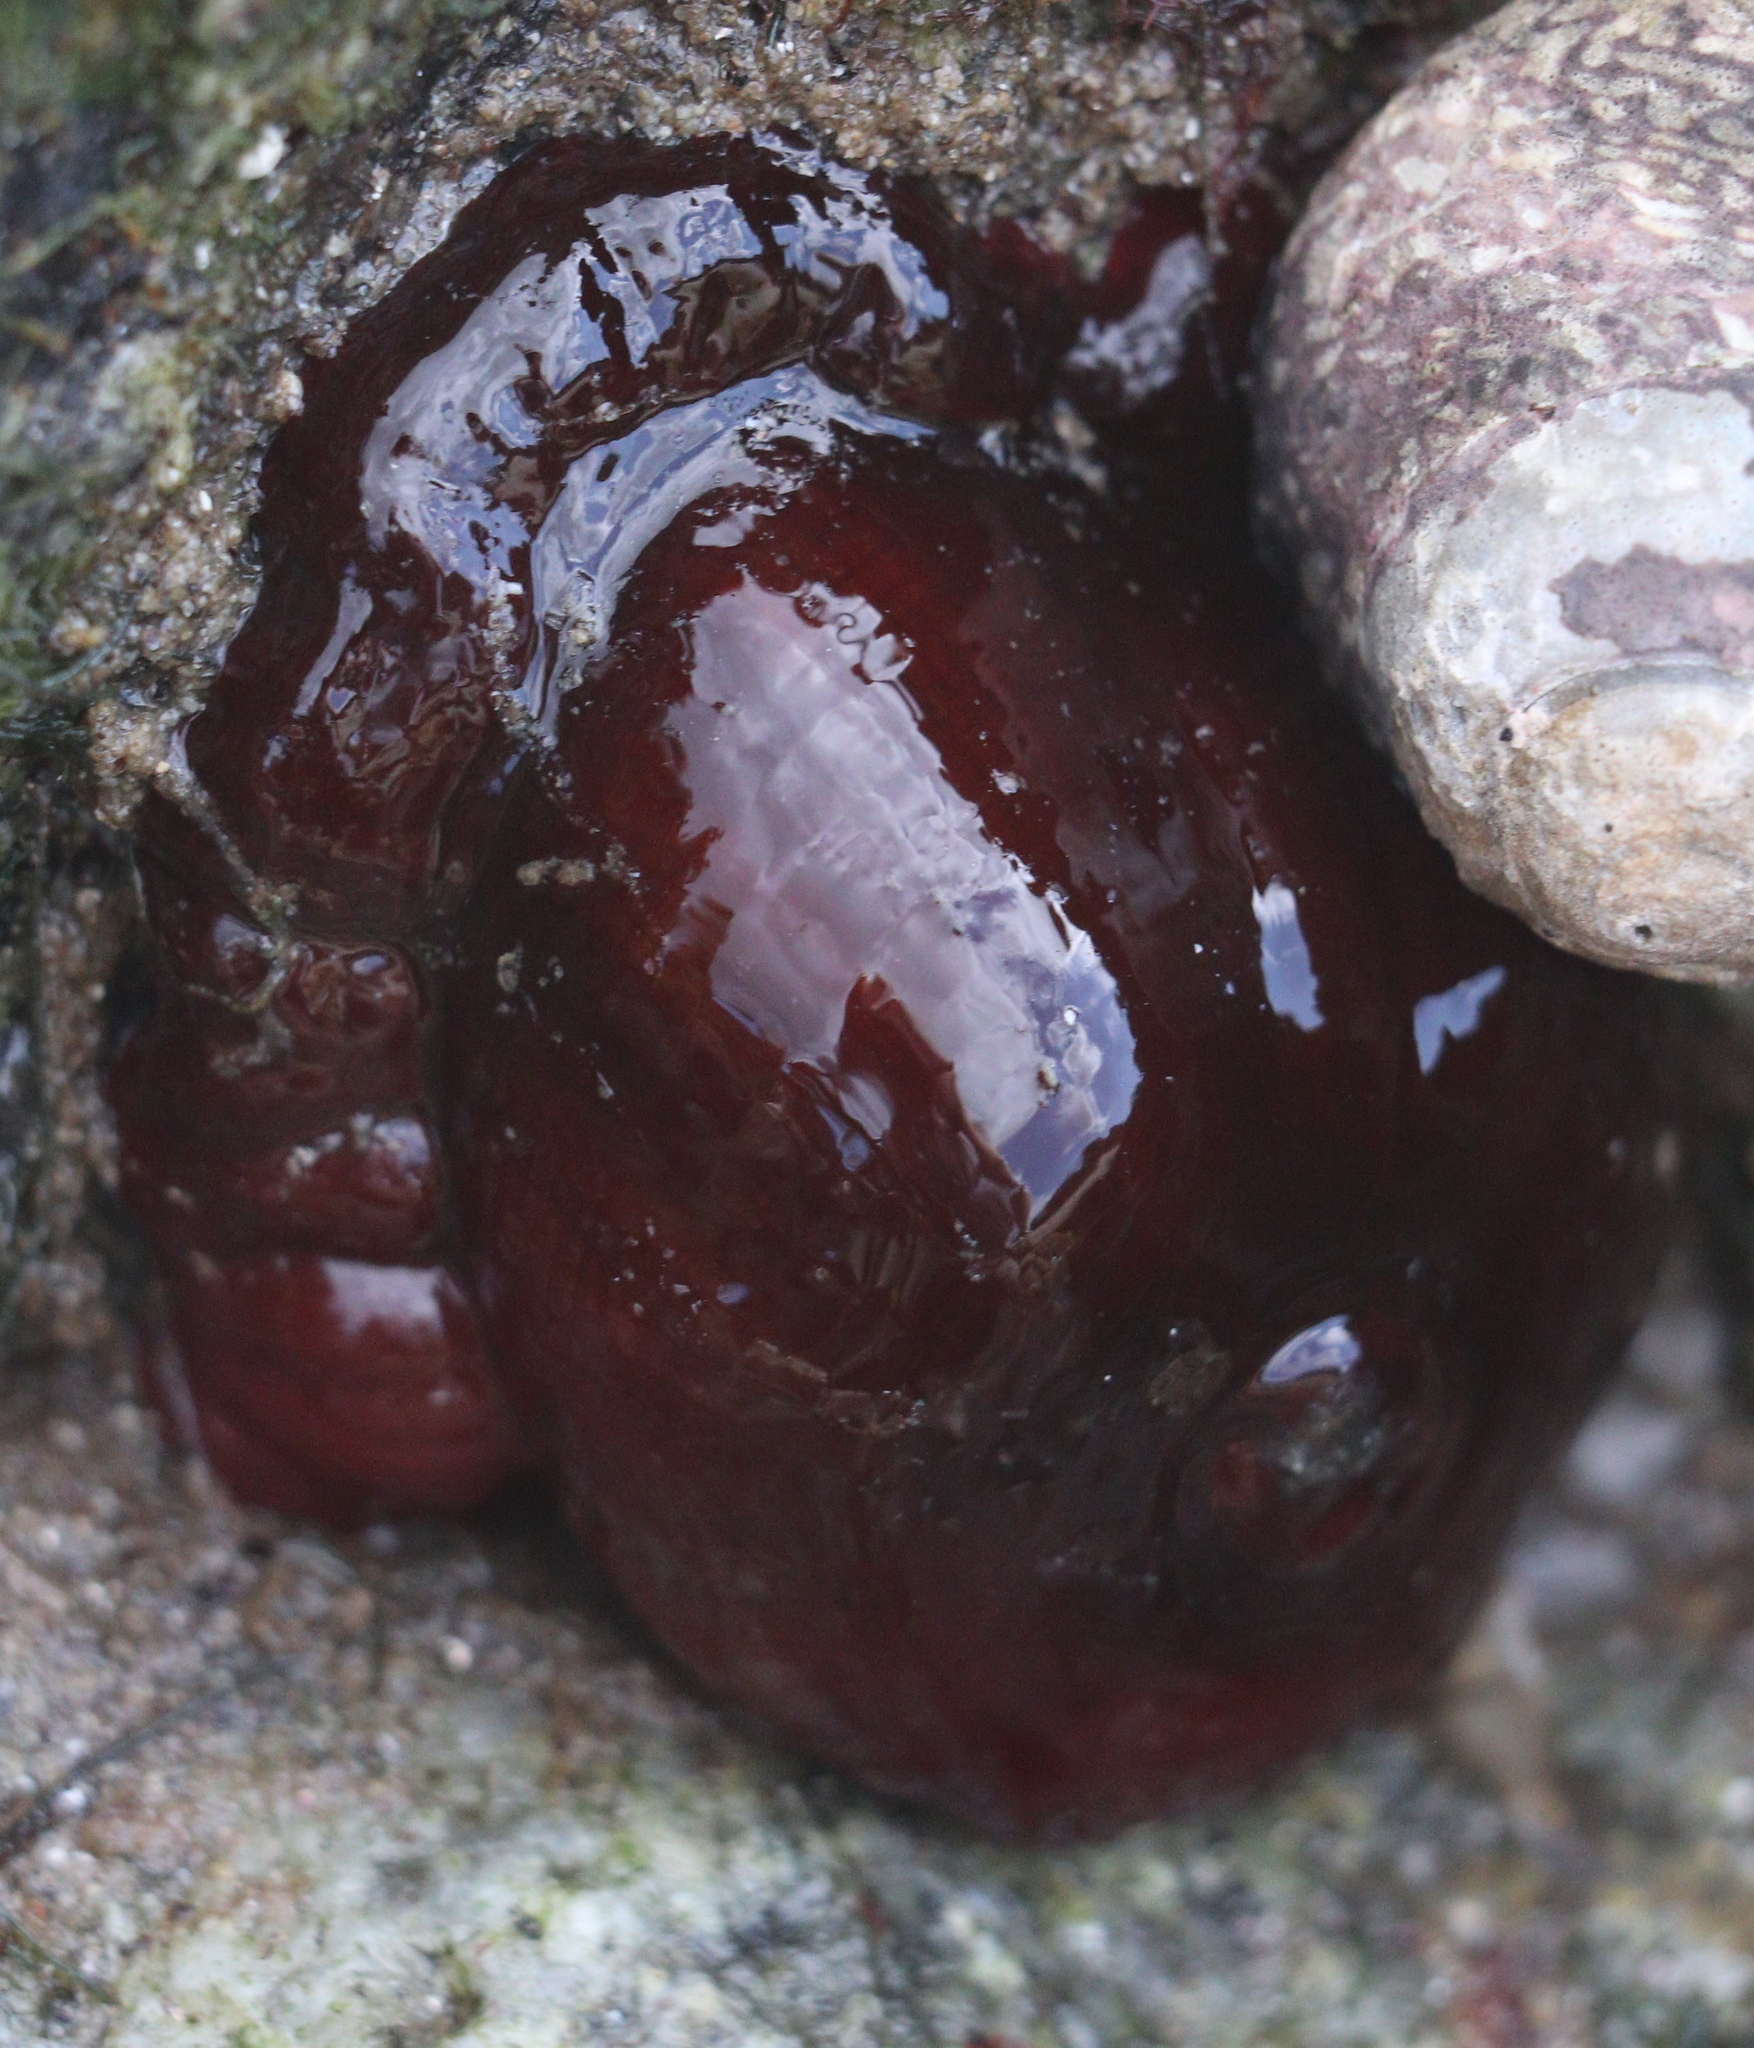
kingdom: Animalia
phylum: Cnidaria
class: Anthozoa
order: Actiniaria
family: Actiniidae
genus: Actinia
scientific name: Actinia equina
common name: Beadlet anemone
